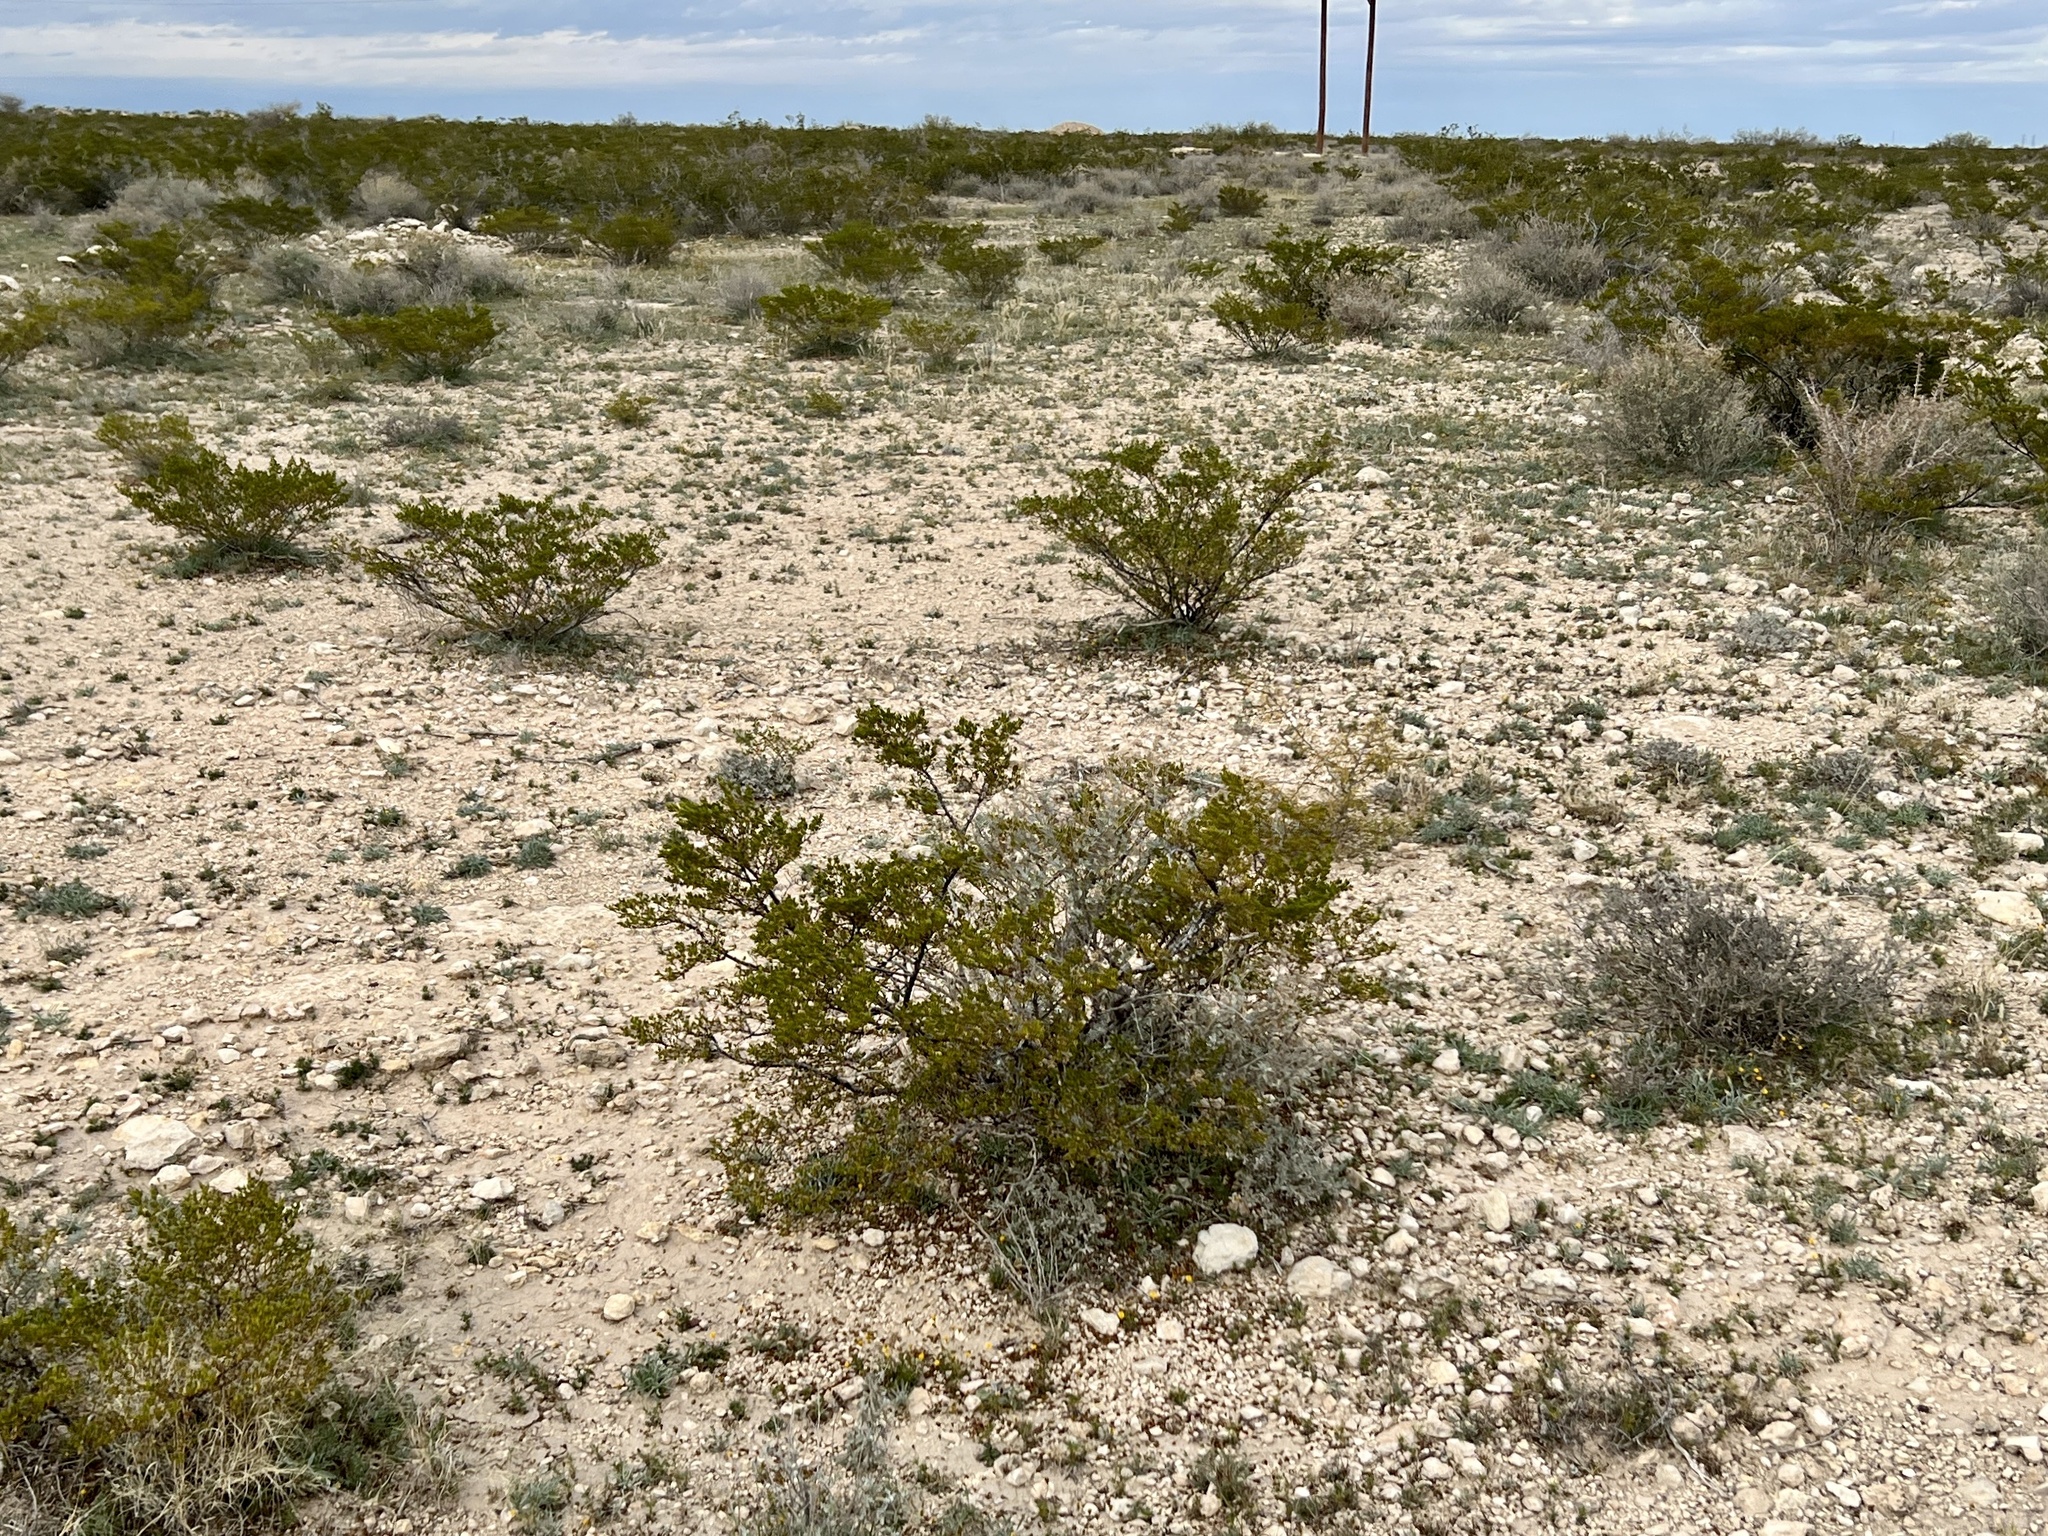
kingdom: Plantae
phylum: Tracheophyta
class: Magnoliopsida
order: Zygophyllales
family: Zygophyllaceae
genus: Larrea
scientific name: Larrea tridentata
